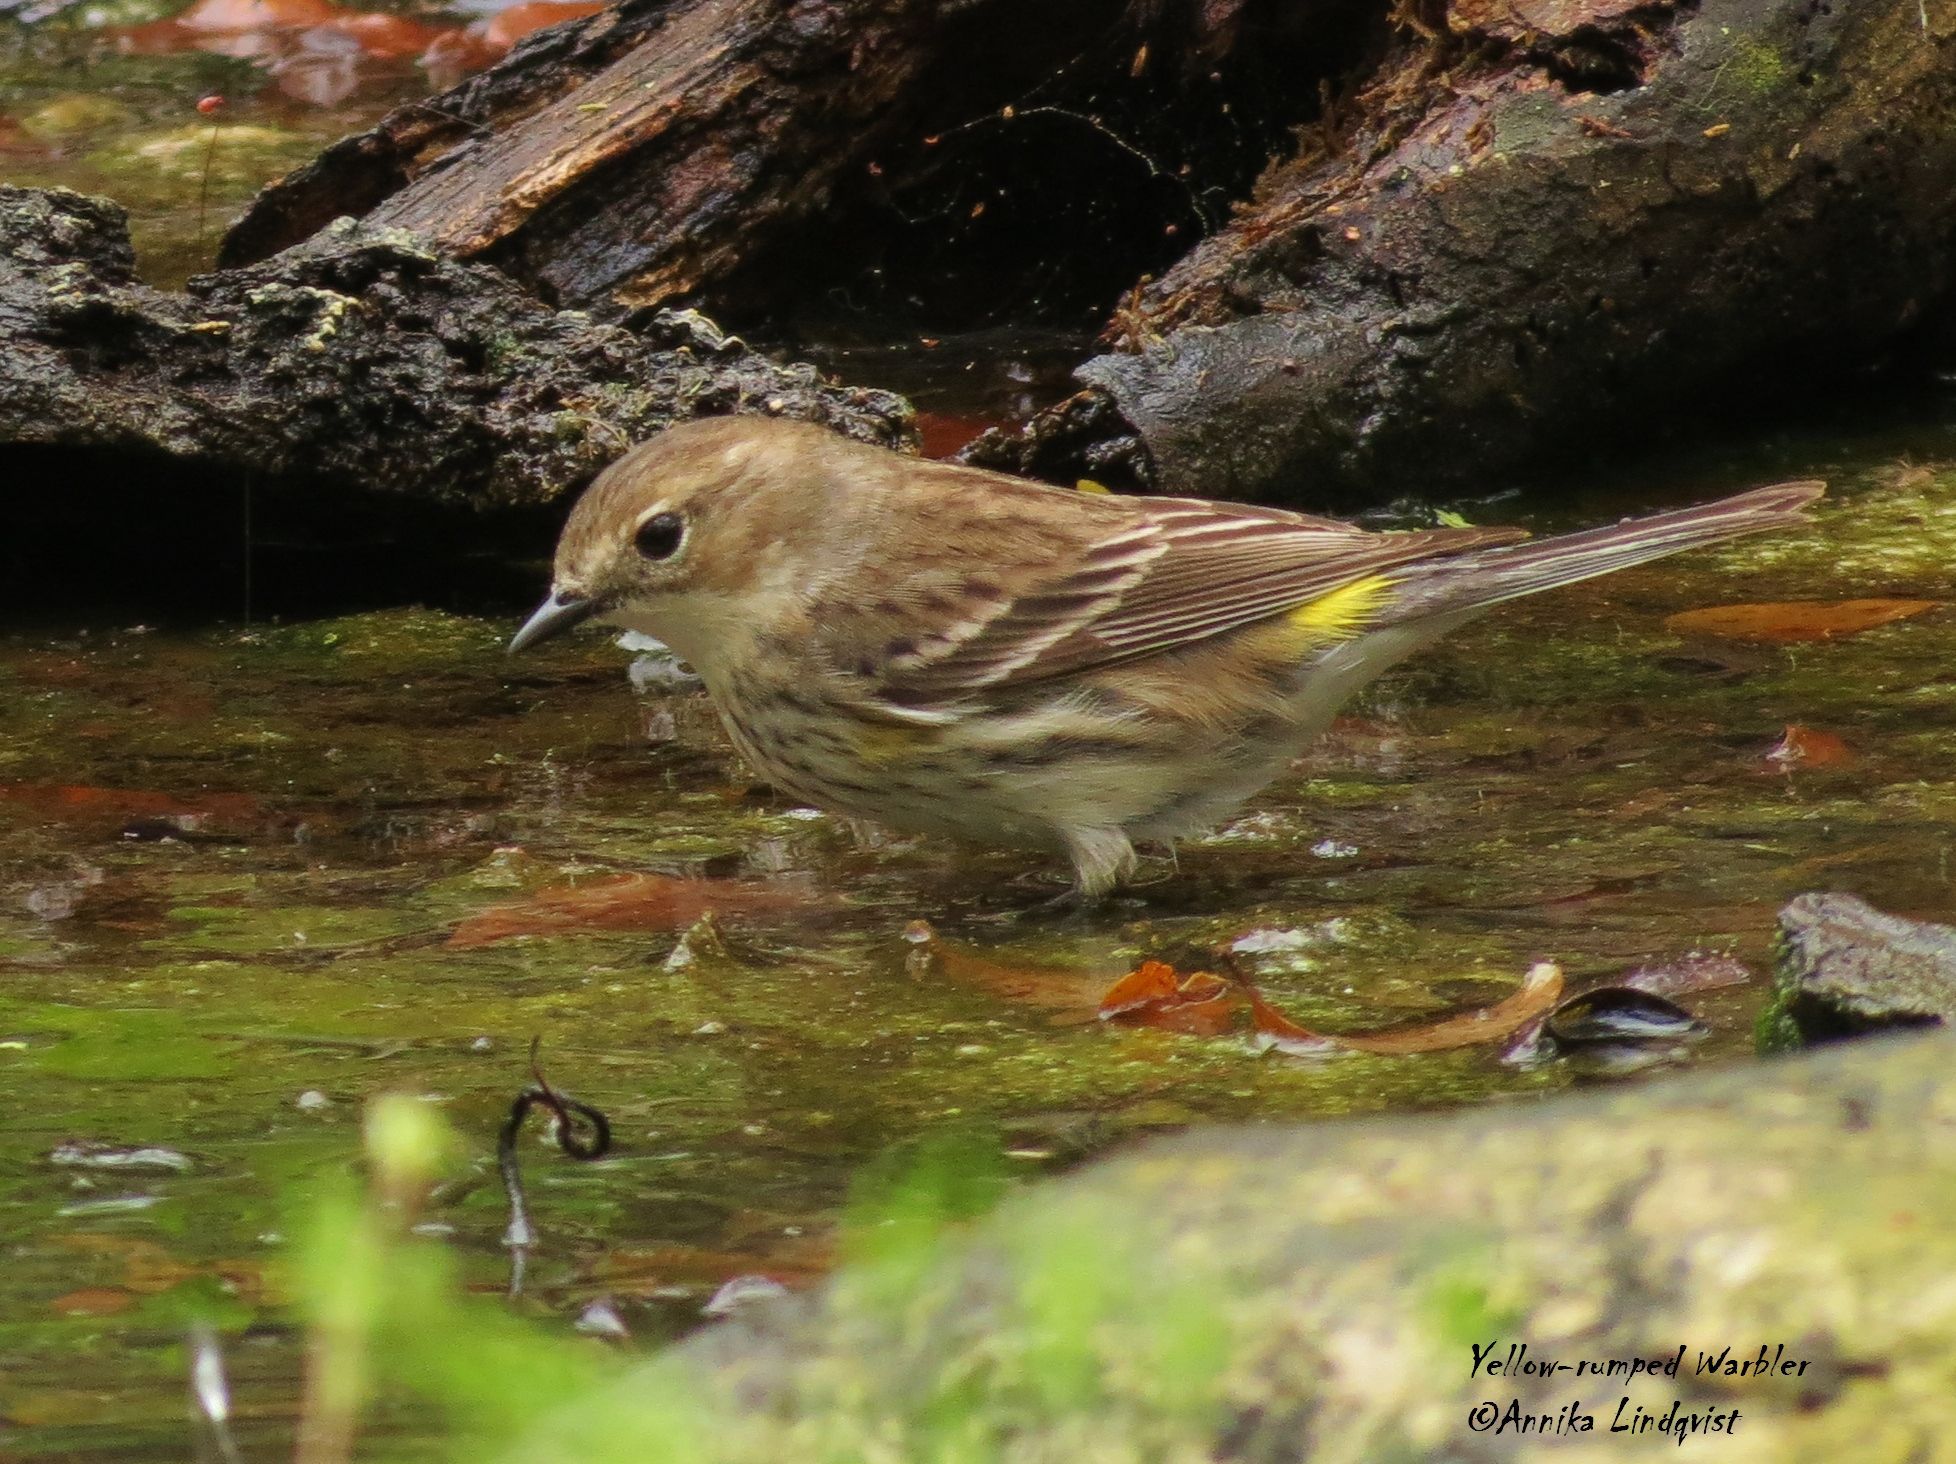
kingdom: Animalia
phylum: Chordata
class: Aves
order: Passeriformes
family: Parulidae
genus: Setophaga
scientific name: Setophaga coronata
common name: Myrtle warbler
